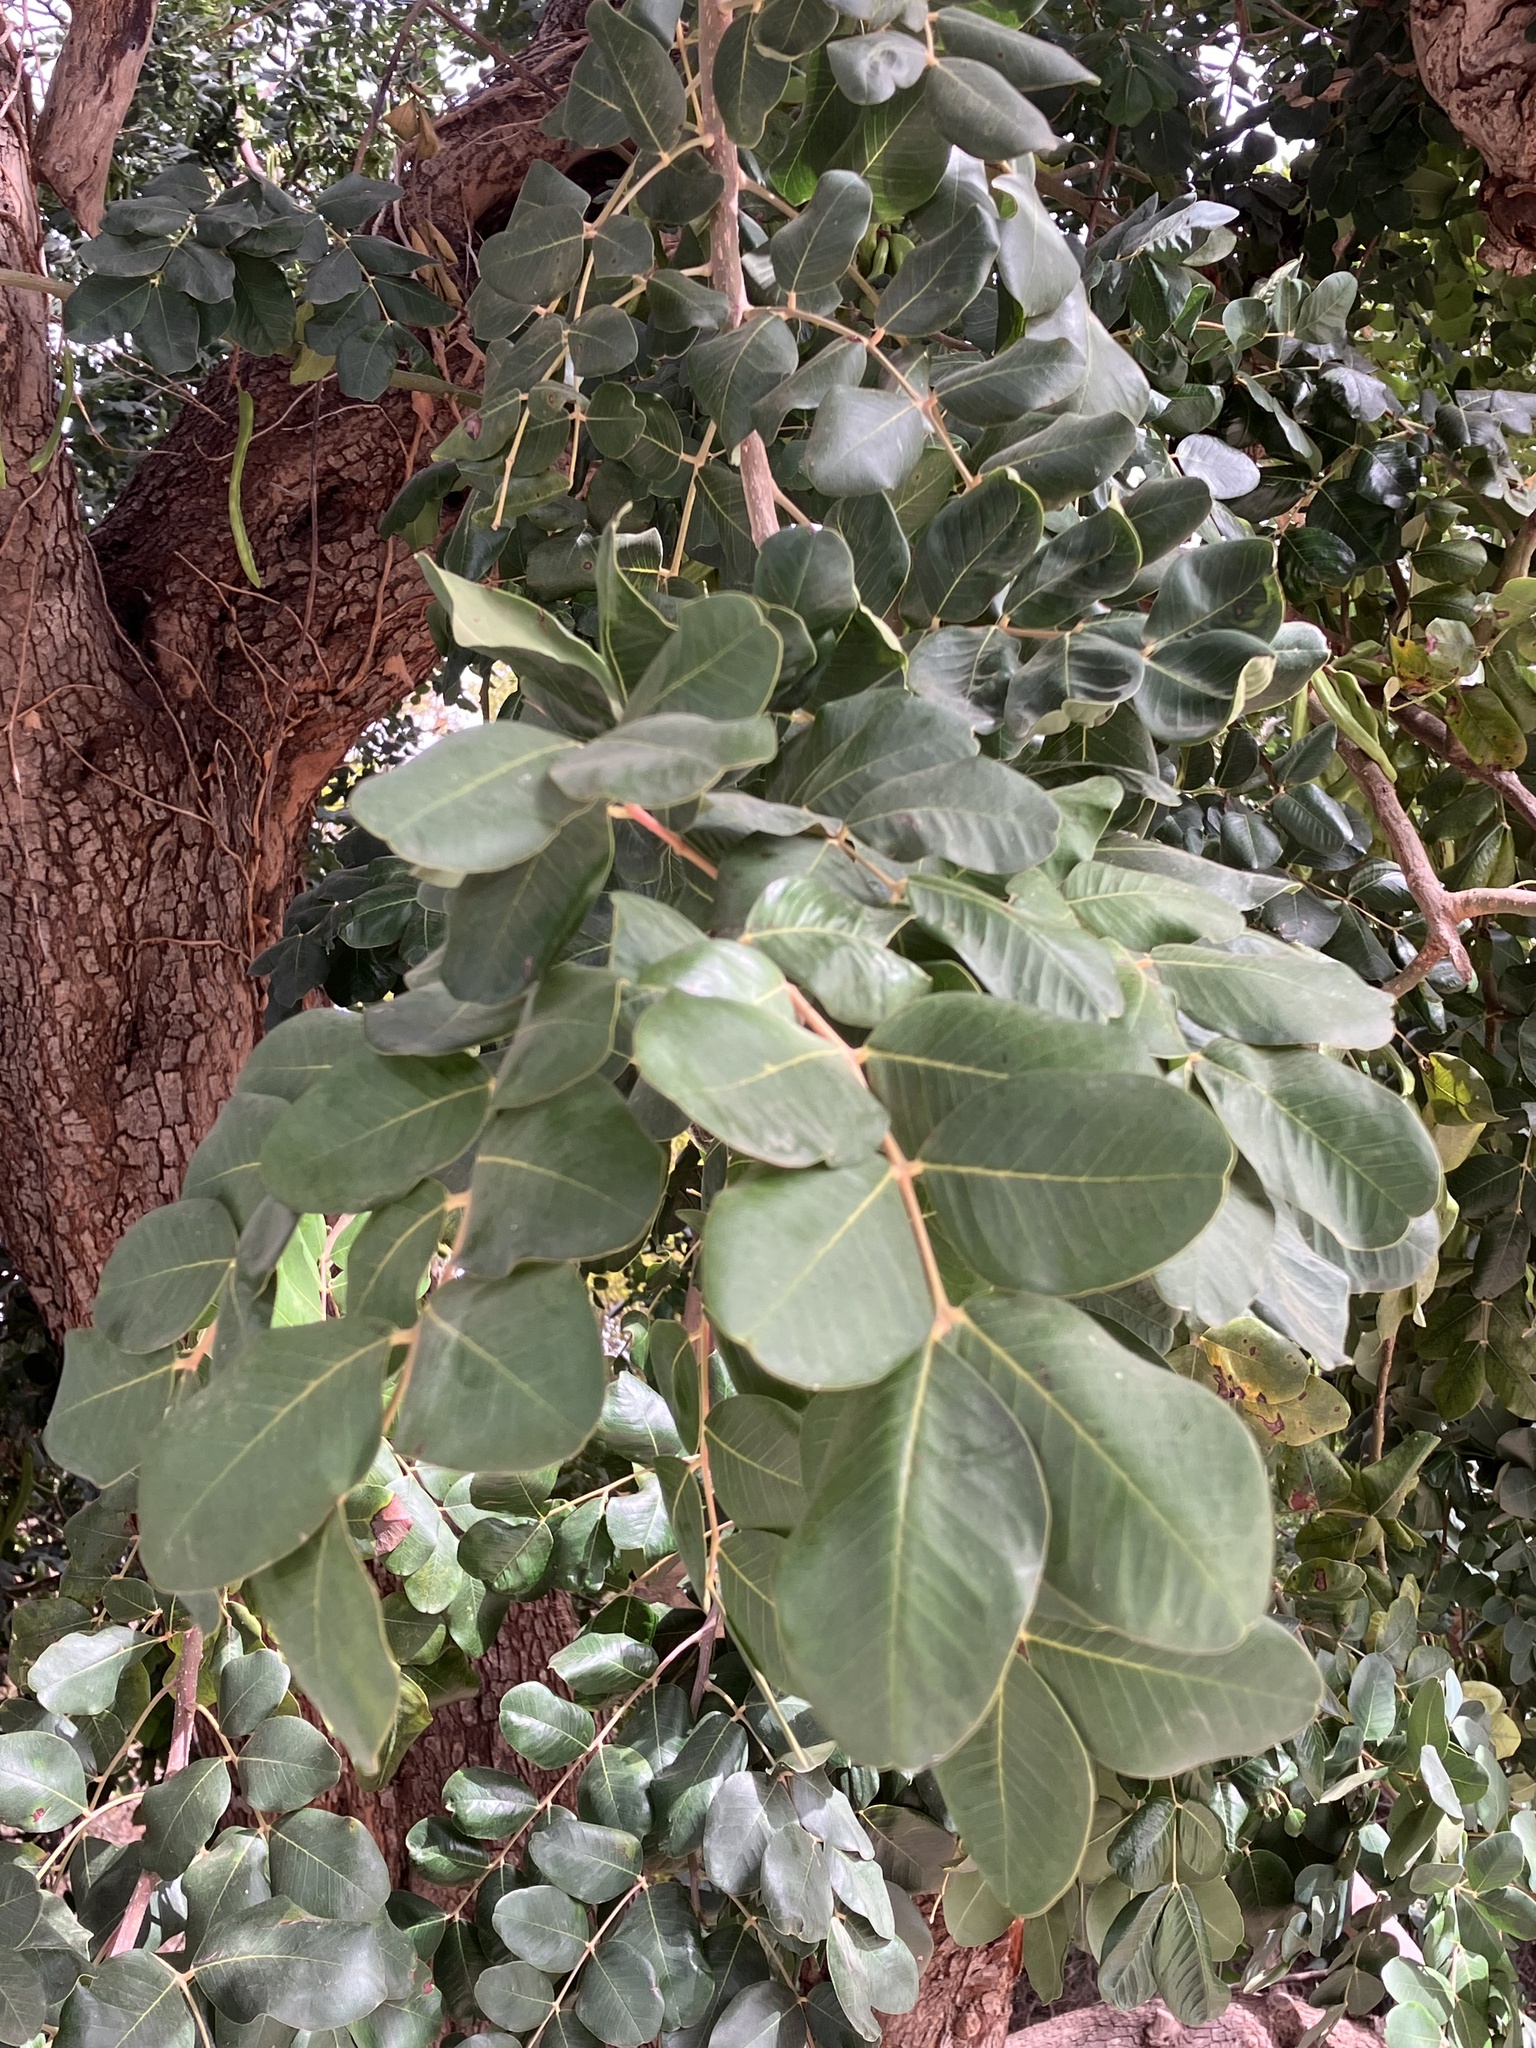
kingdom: Plantae
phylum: Tracheophyta
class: Magnoliopsida
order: Fabales
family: Fabaceae
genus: Ceratonia
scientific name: Ceratonia siliqua
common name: Carob
